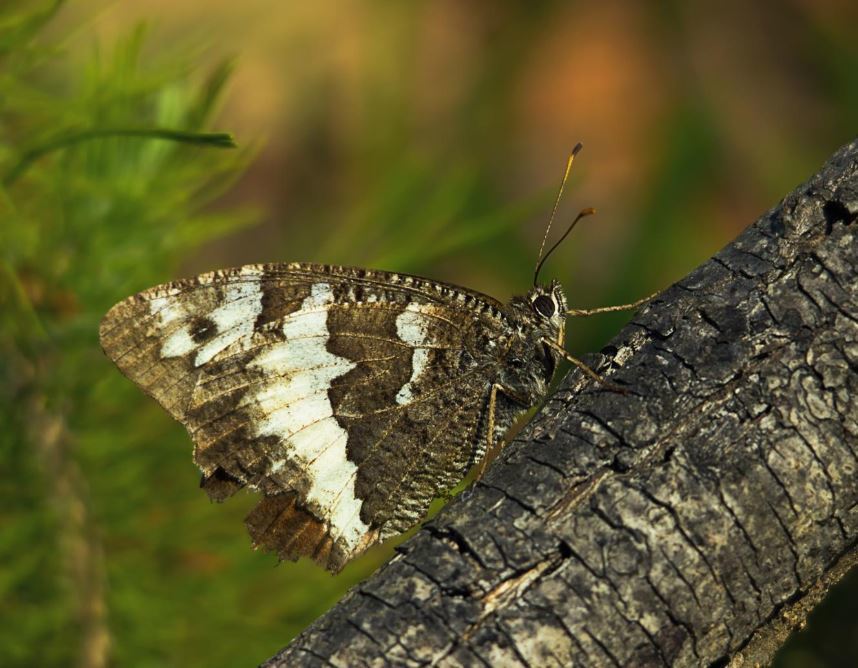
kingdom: Animalia
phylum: Arthropoda
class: Insecta
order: Lepidoptera
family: Lycaenidae
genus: Loweia
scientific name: Loweia tityrus
